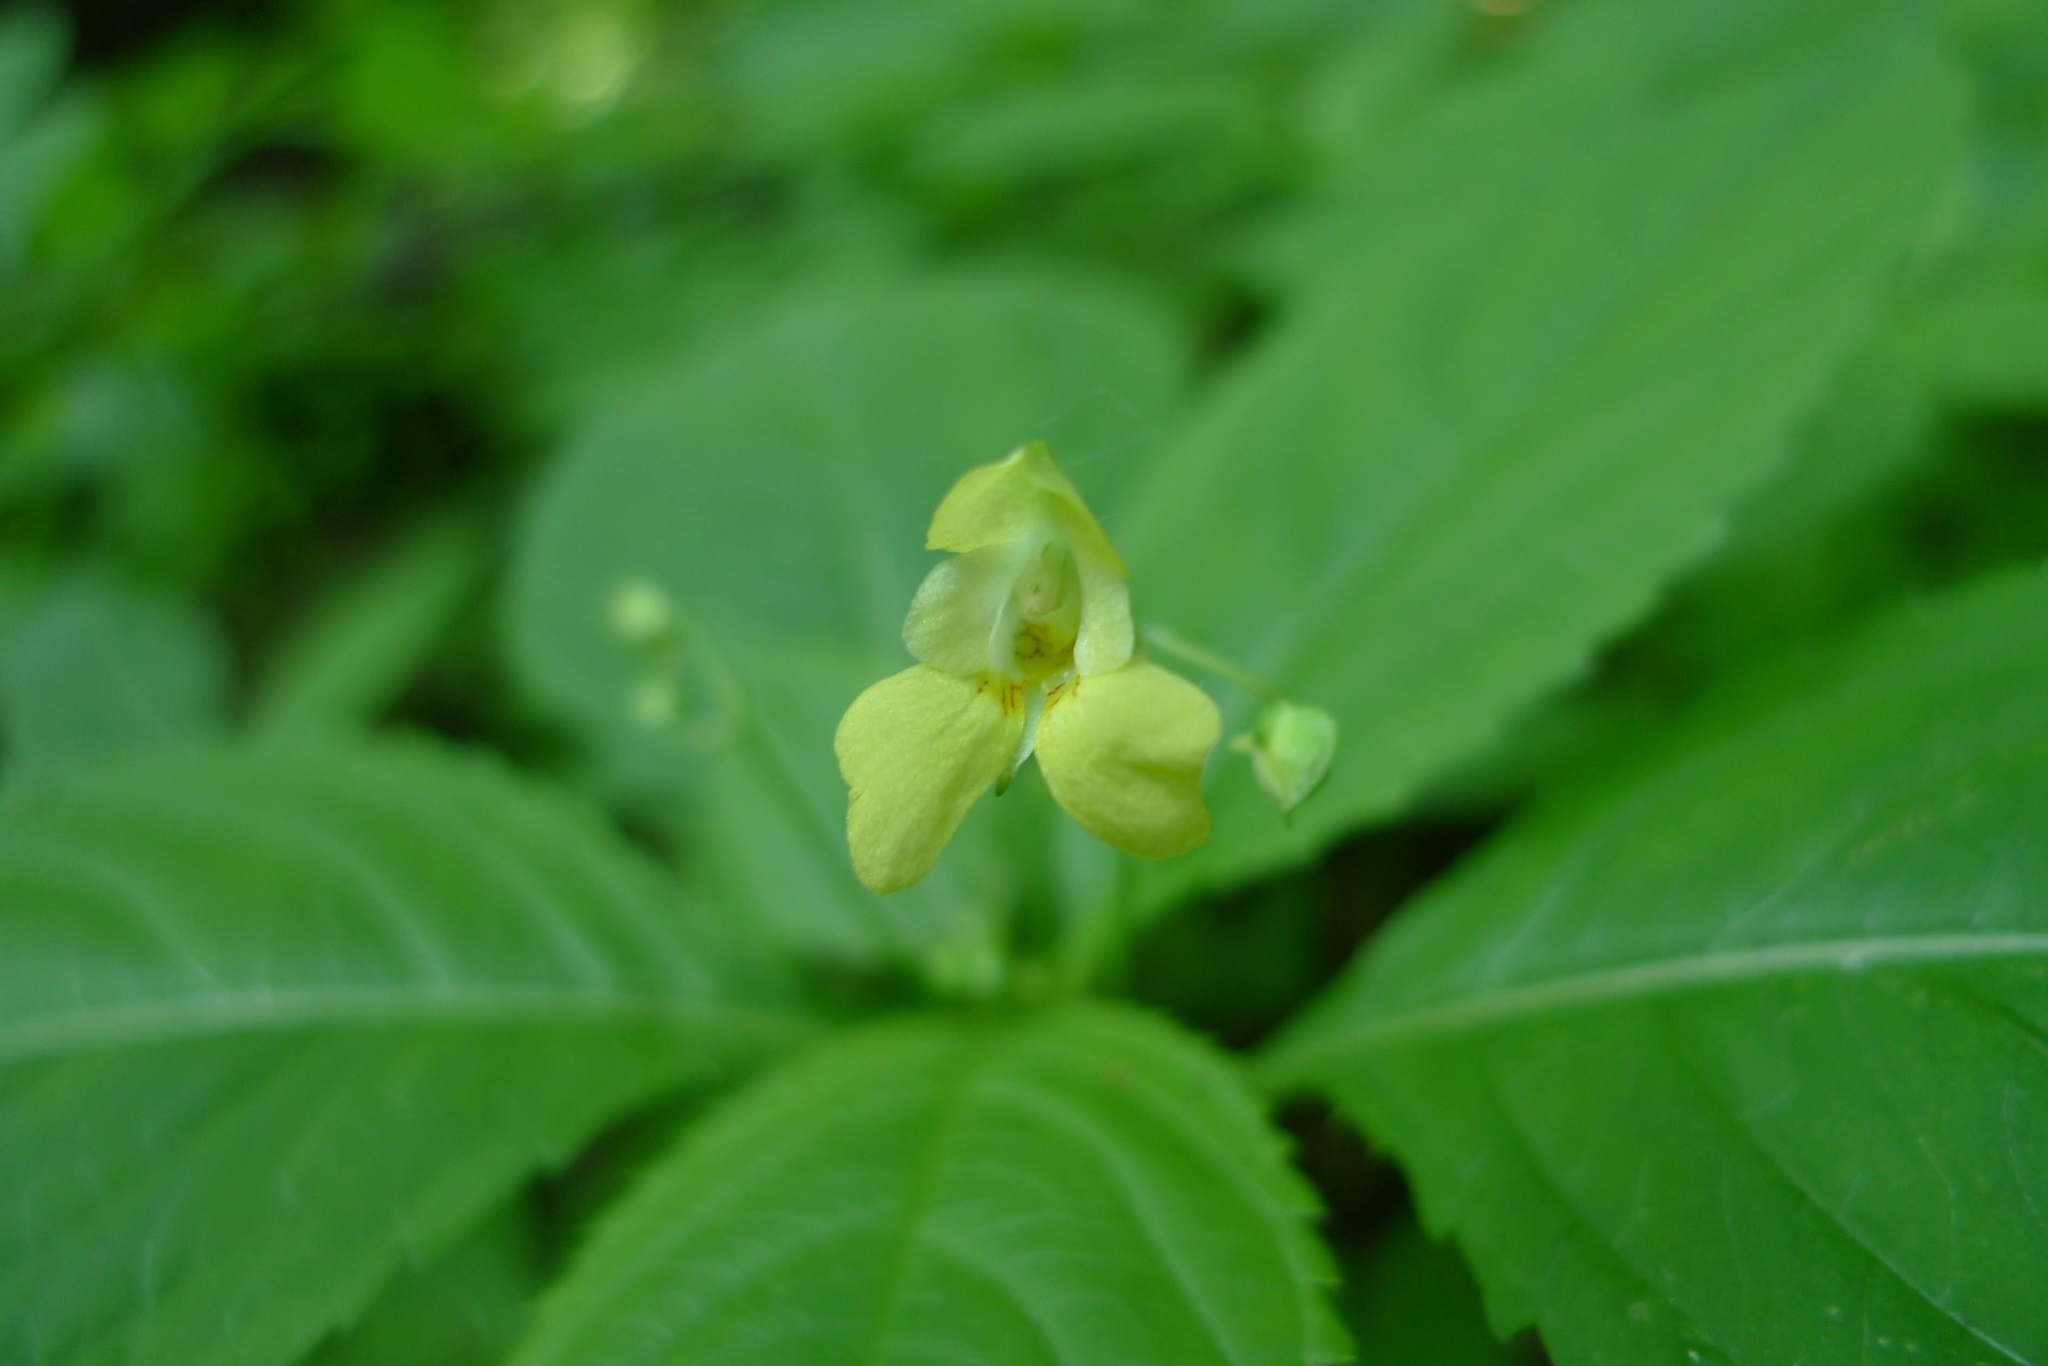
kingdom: Plantae
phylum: Tracheophyta
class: Magnoliopsida
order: Ericales
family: Balsaminaceae
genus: Impatiens
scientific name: Impatiens parviflora
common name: Small balsam
